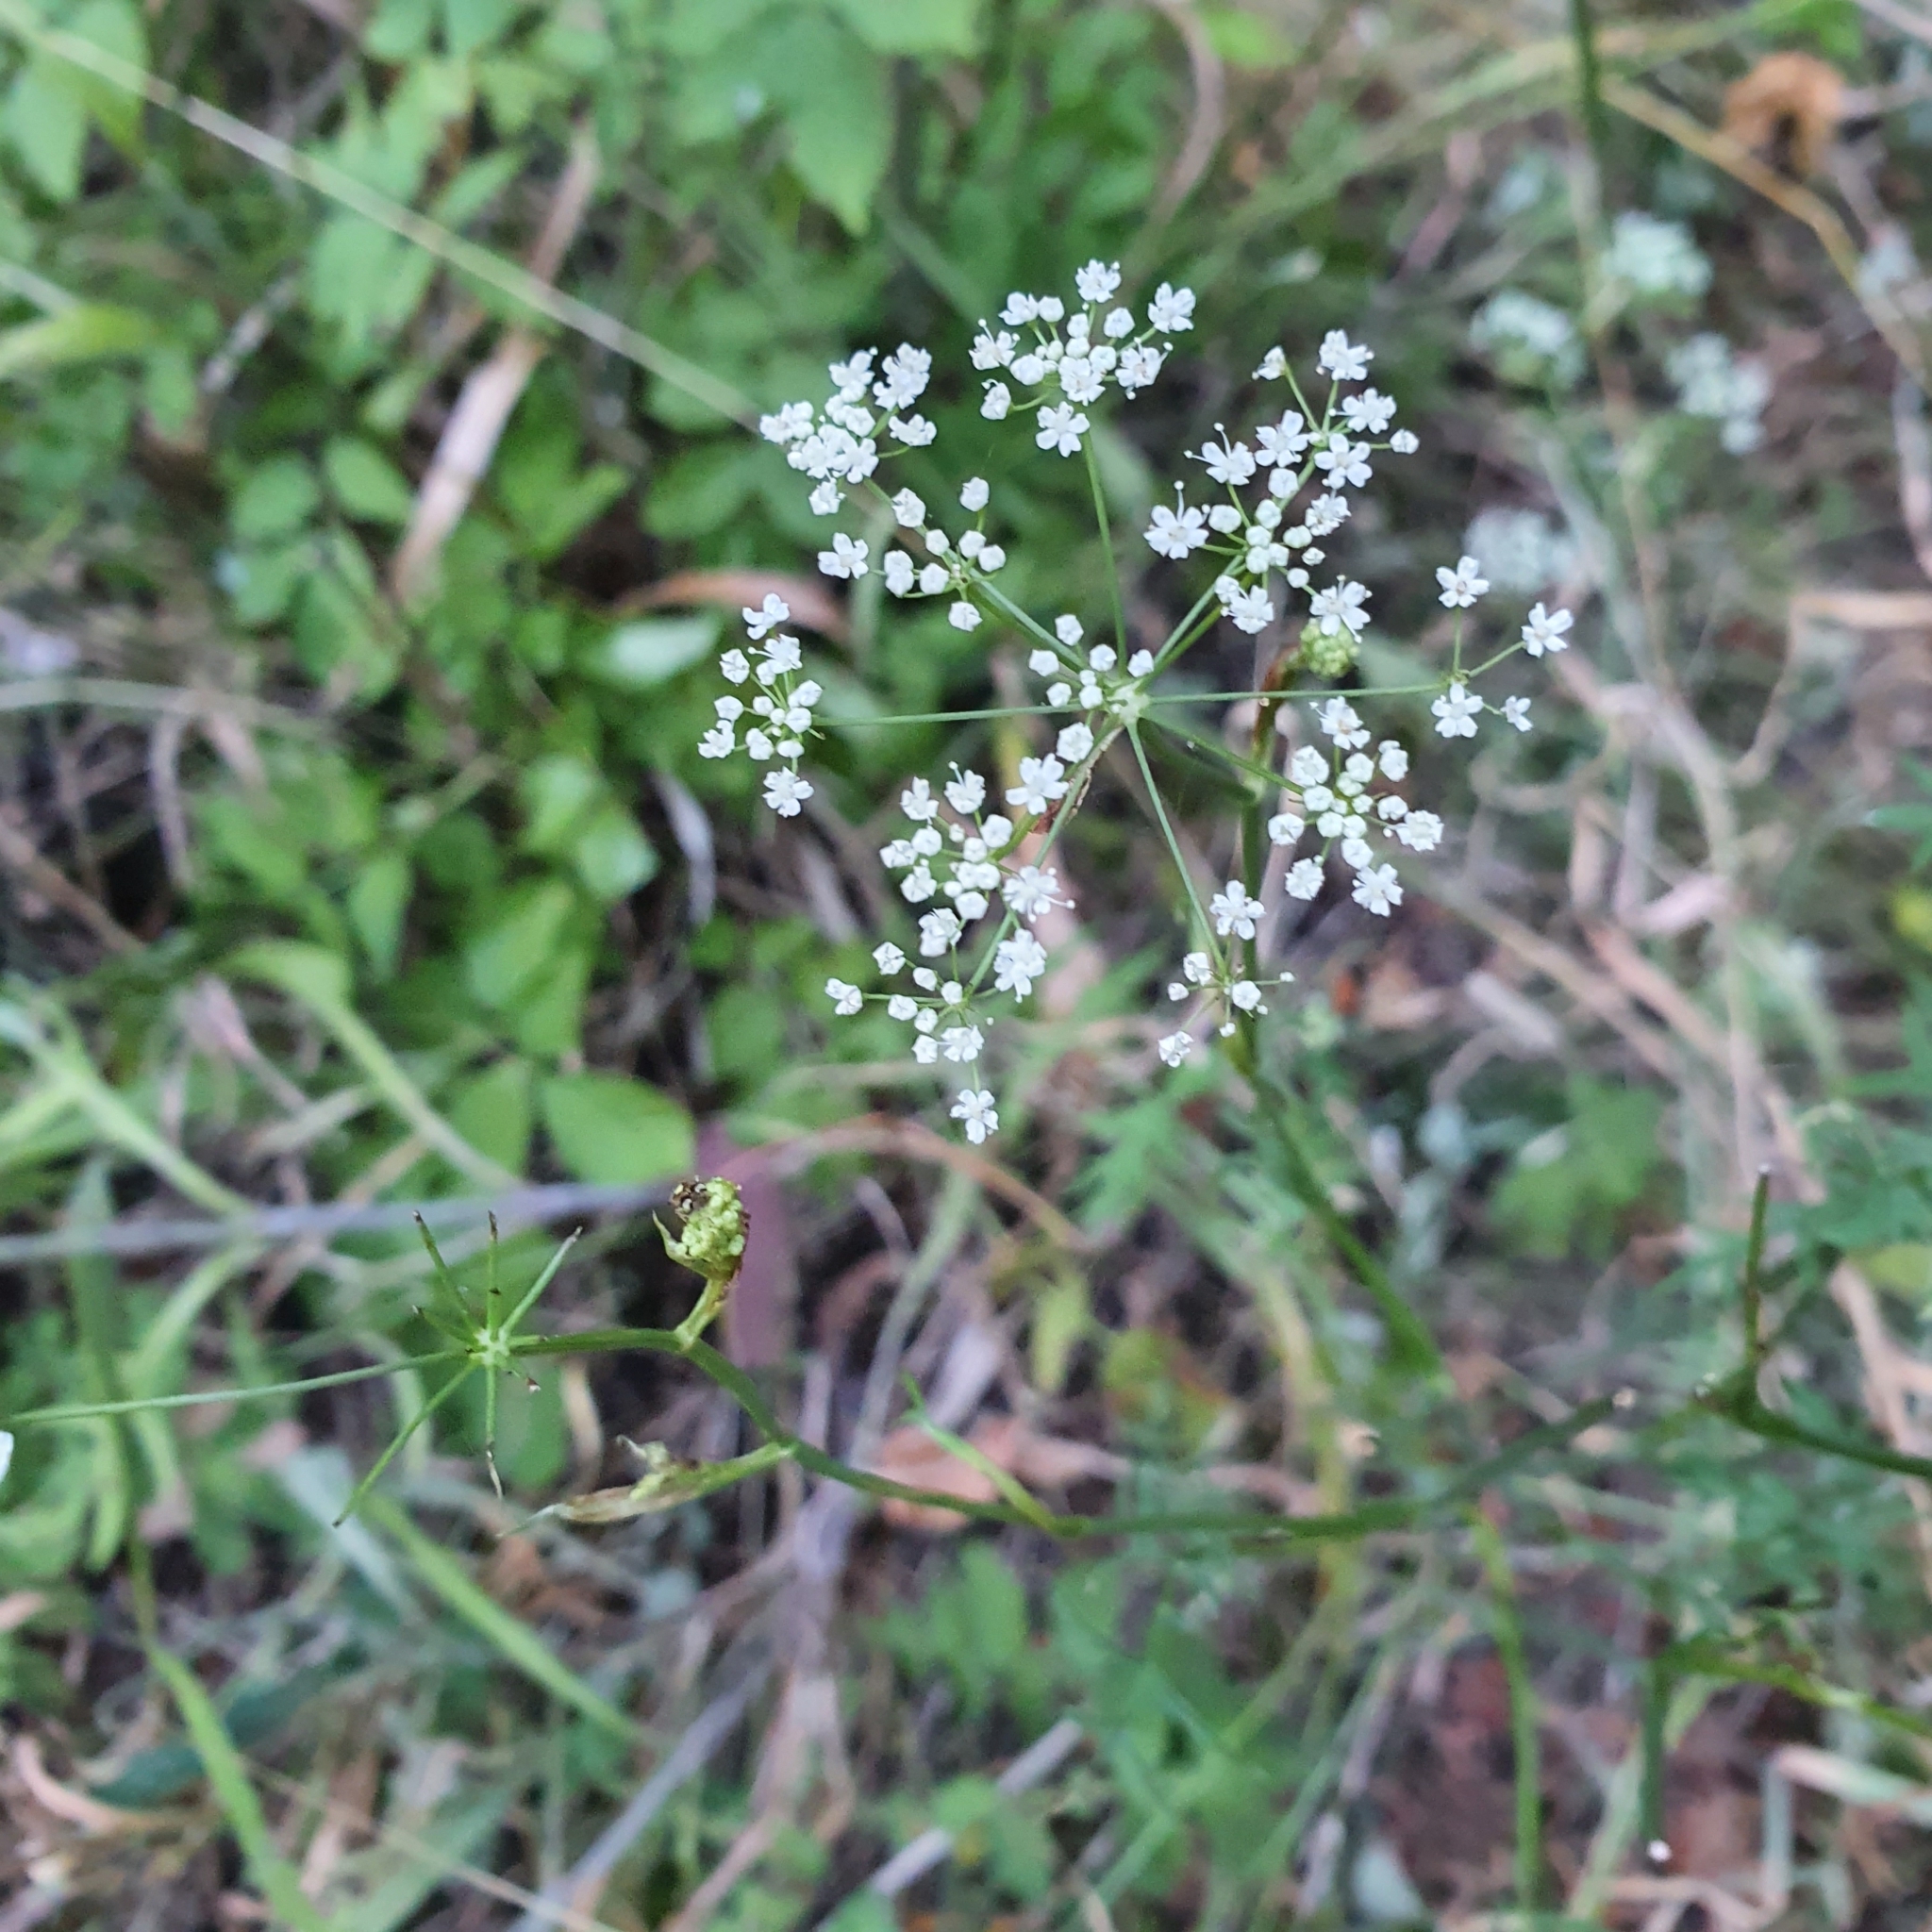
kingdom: Plantae
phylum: Tracheophyta
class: Magnoliopsida
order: Apiales
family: Apiaceae
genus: Pimpinella
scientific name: Pimpinella saxifraga
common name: Burnet-saxifrage
